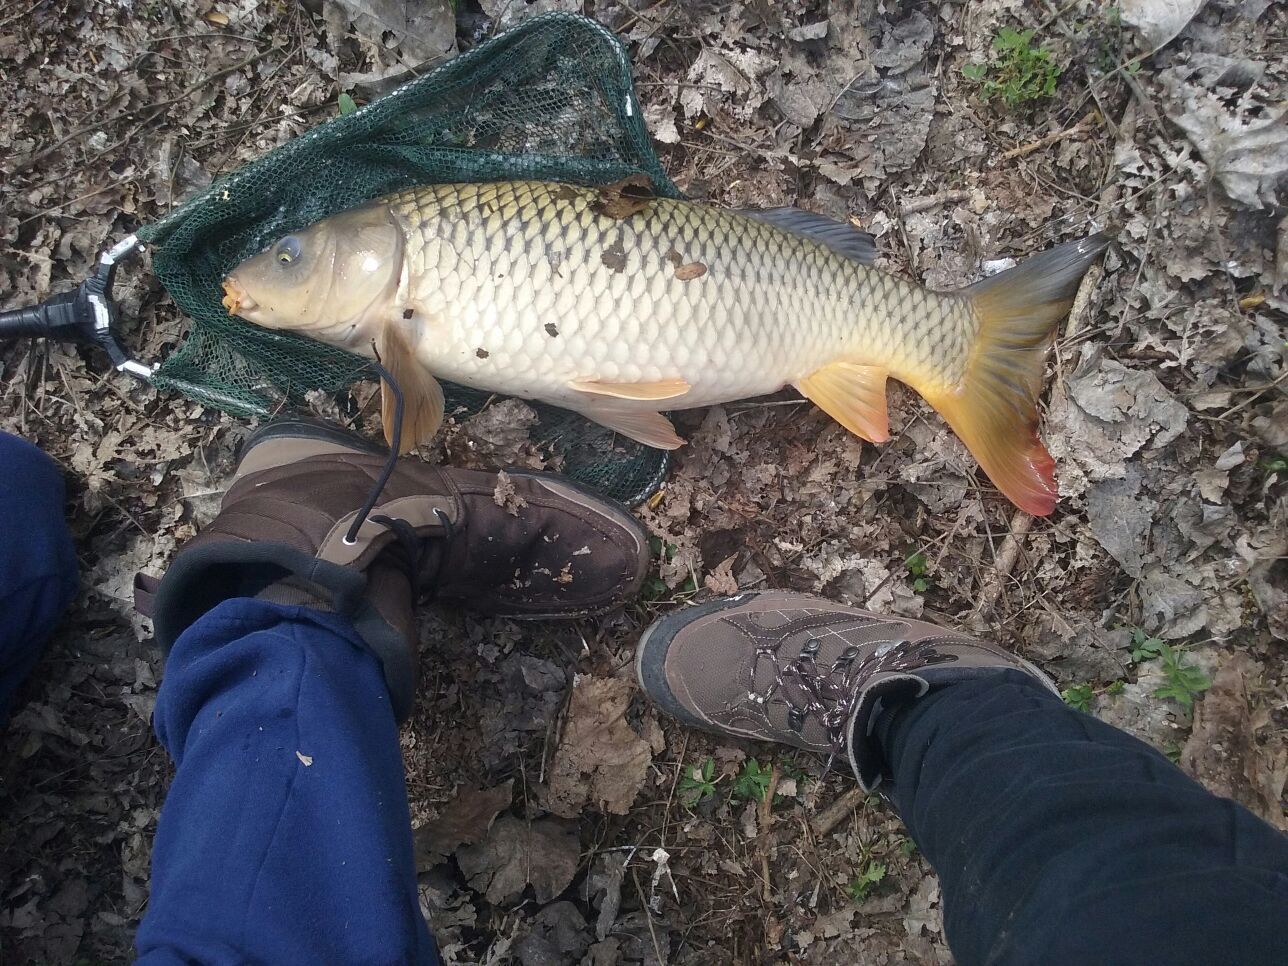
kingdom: Animalia
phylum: Chordata
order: Cypriniformes
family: Cyprinidae
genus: Cyprinus
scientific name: Cyprinus carpio
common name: Common carp
